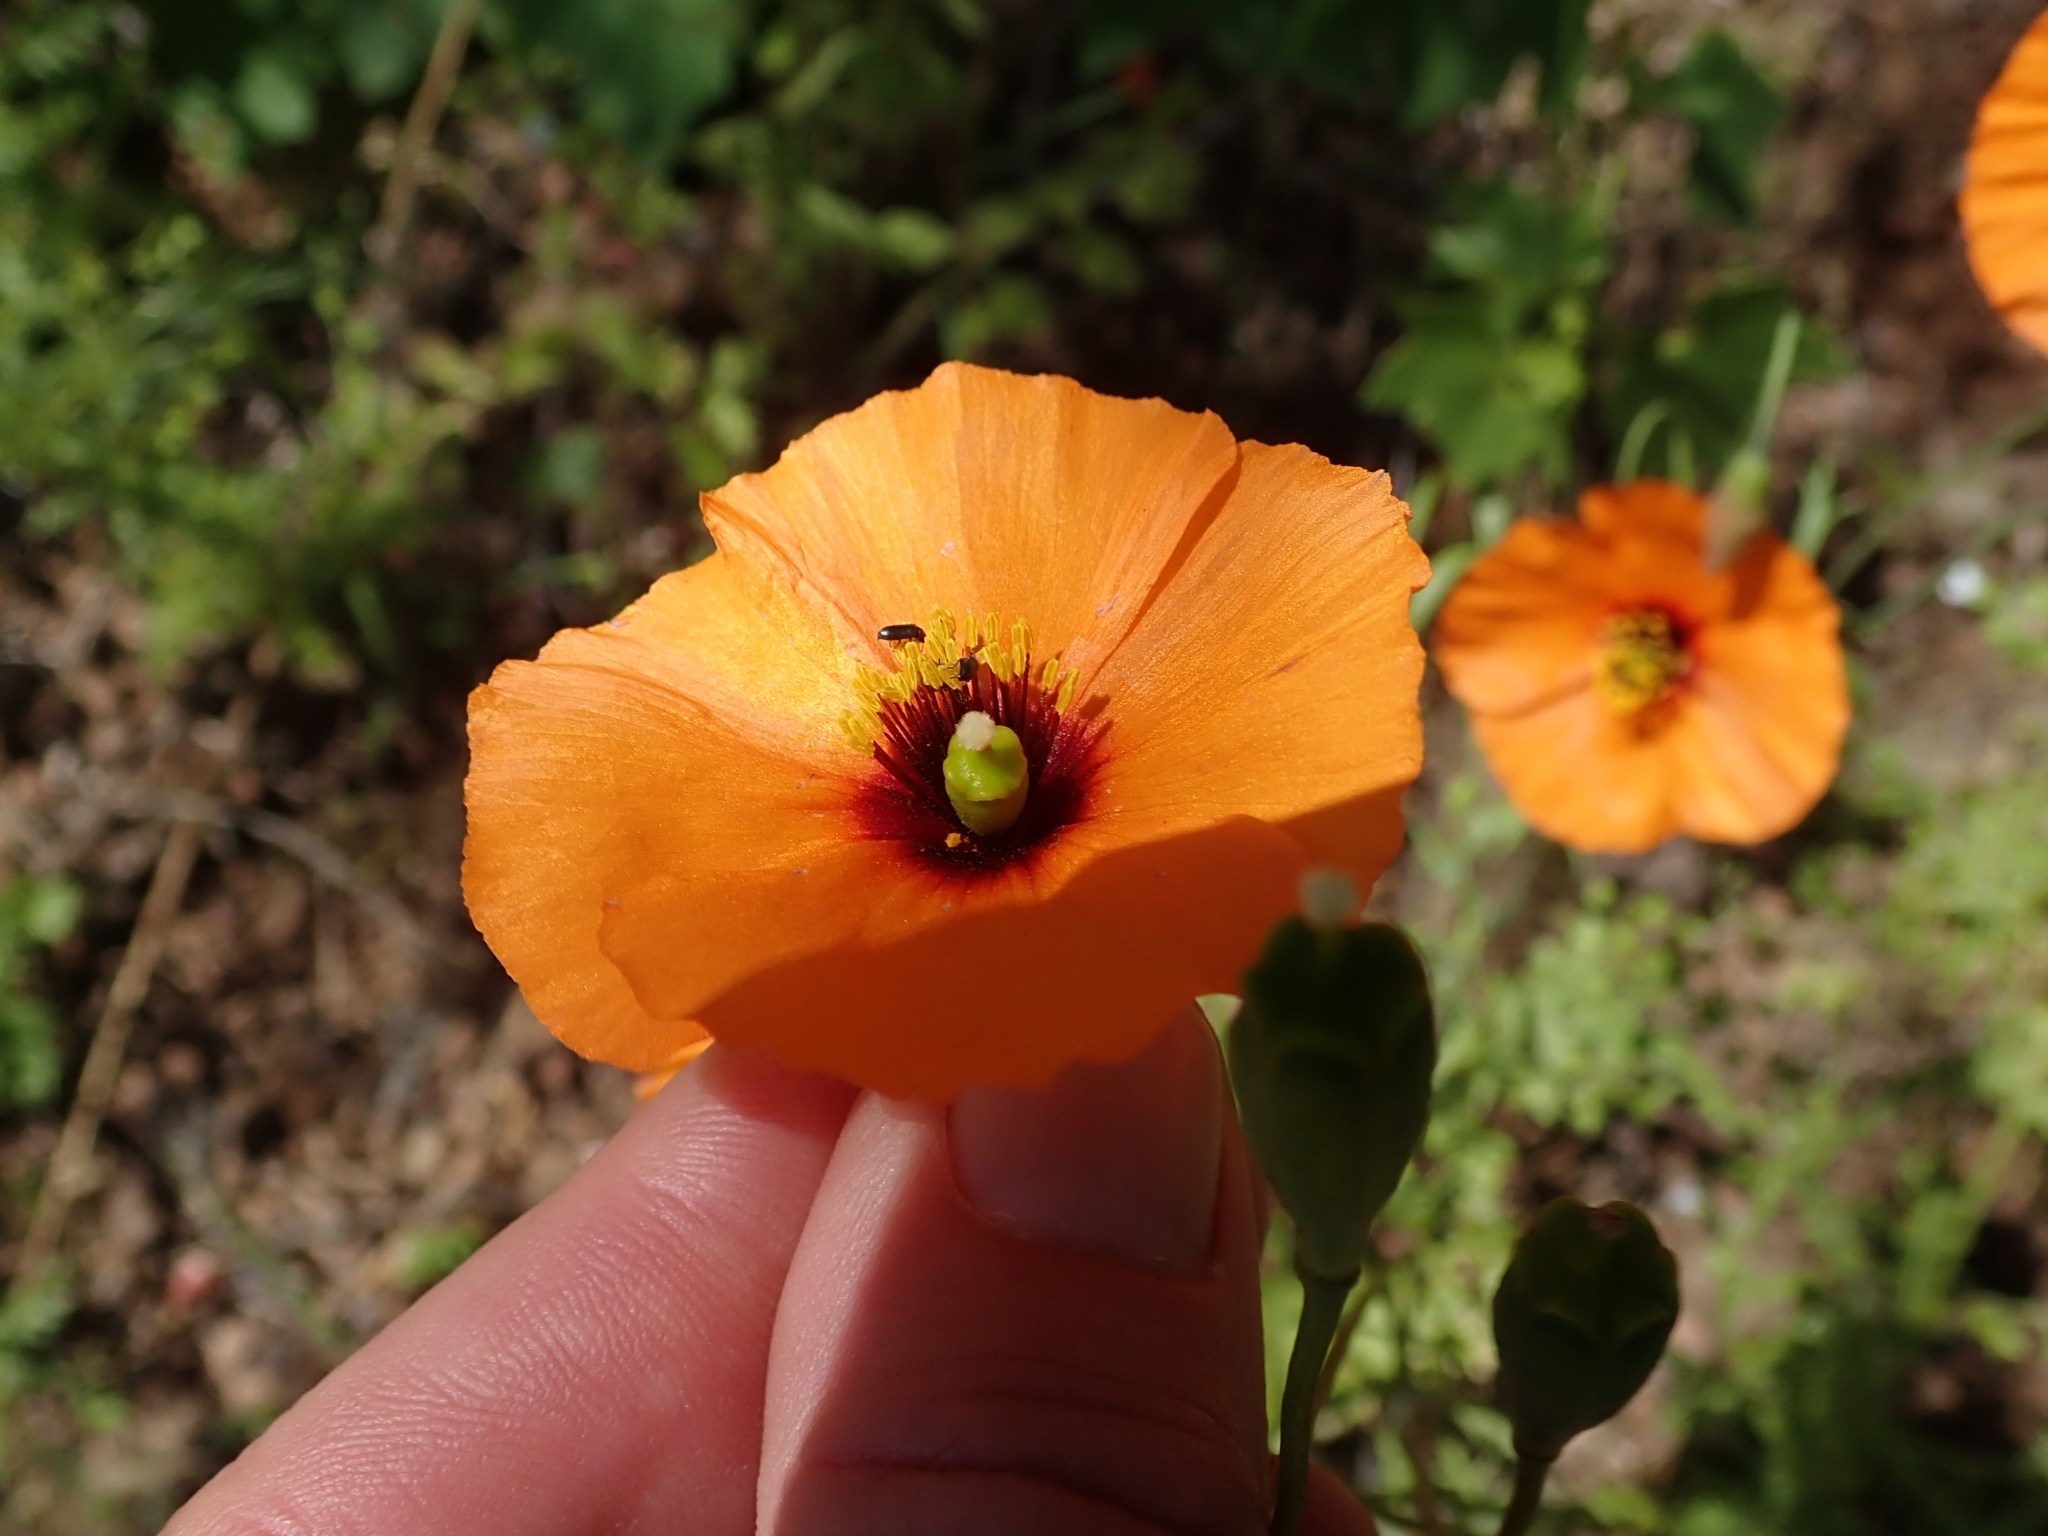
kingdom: Plantae
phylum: Tracheophyta
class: Magnoliopsida
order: Ranunculales
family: Papaveraceae
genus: Stylomecon
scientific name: Stylomecon heterophylla
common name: Flaming-poppy
